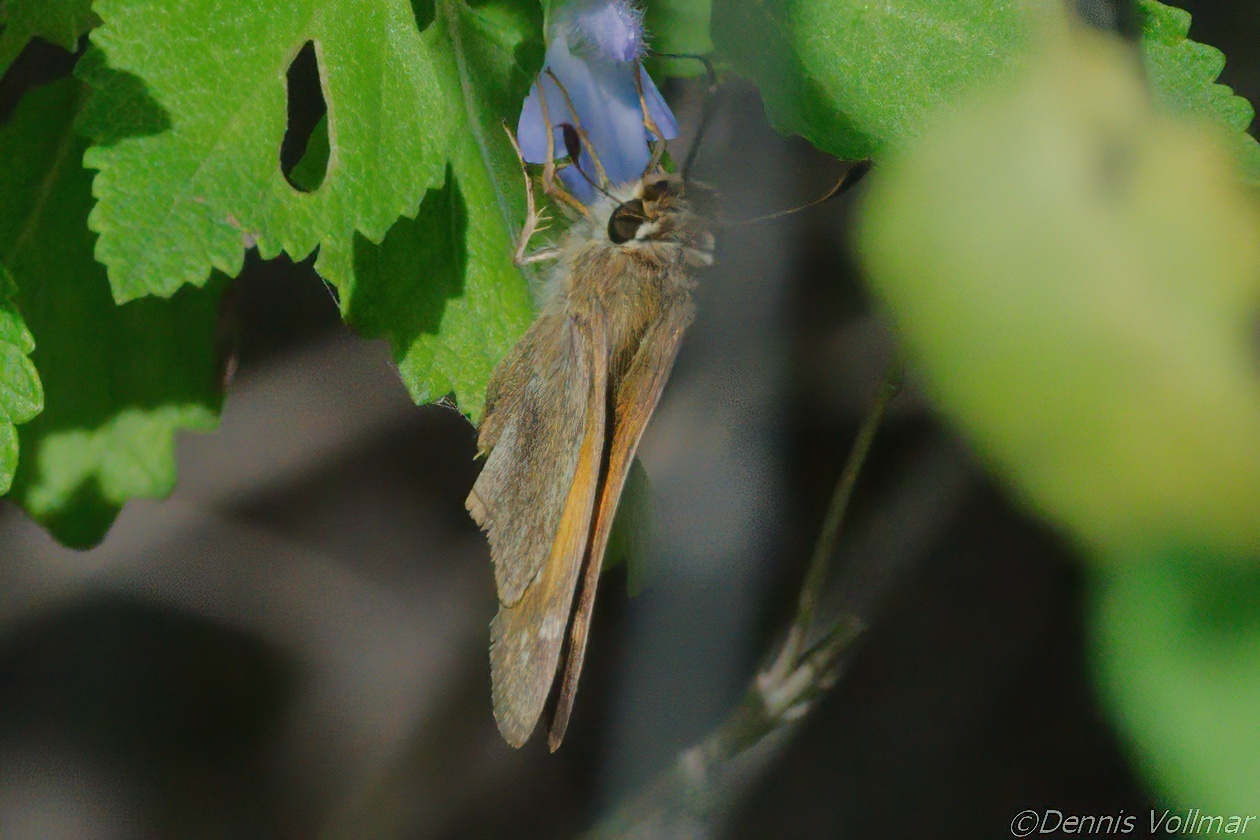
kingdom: Animalia
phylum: Arthropoda
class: Insecta
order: Lepidoptera
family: Hesperiidae
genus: Atalopedes
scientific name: Atalopedes
